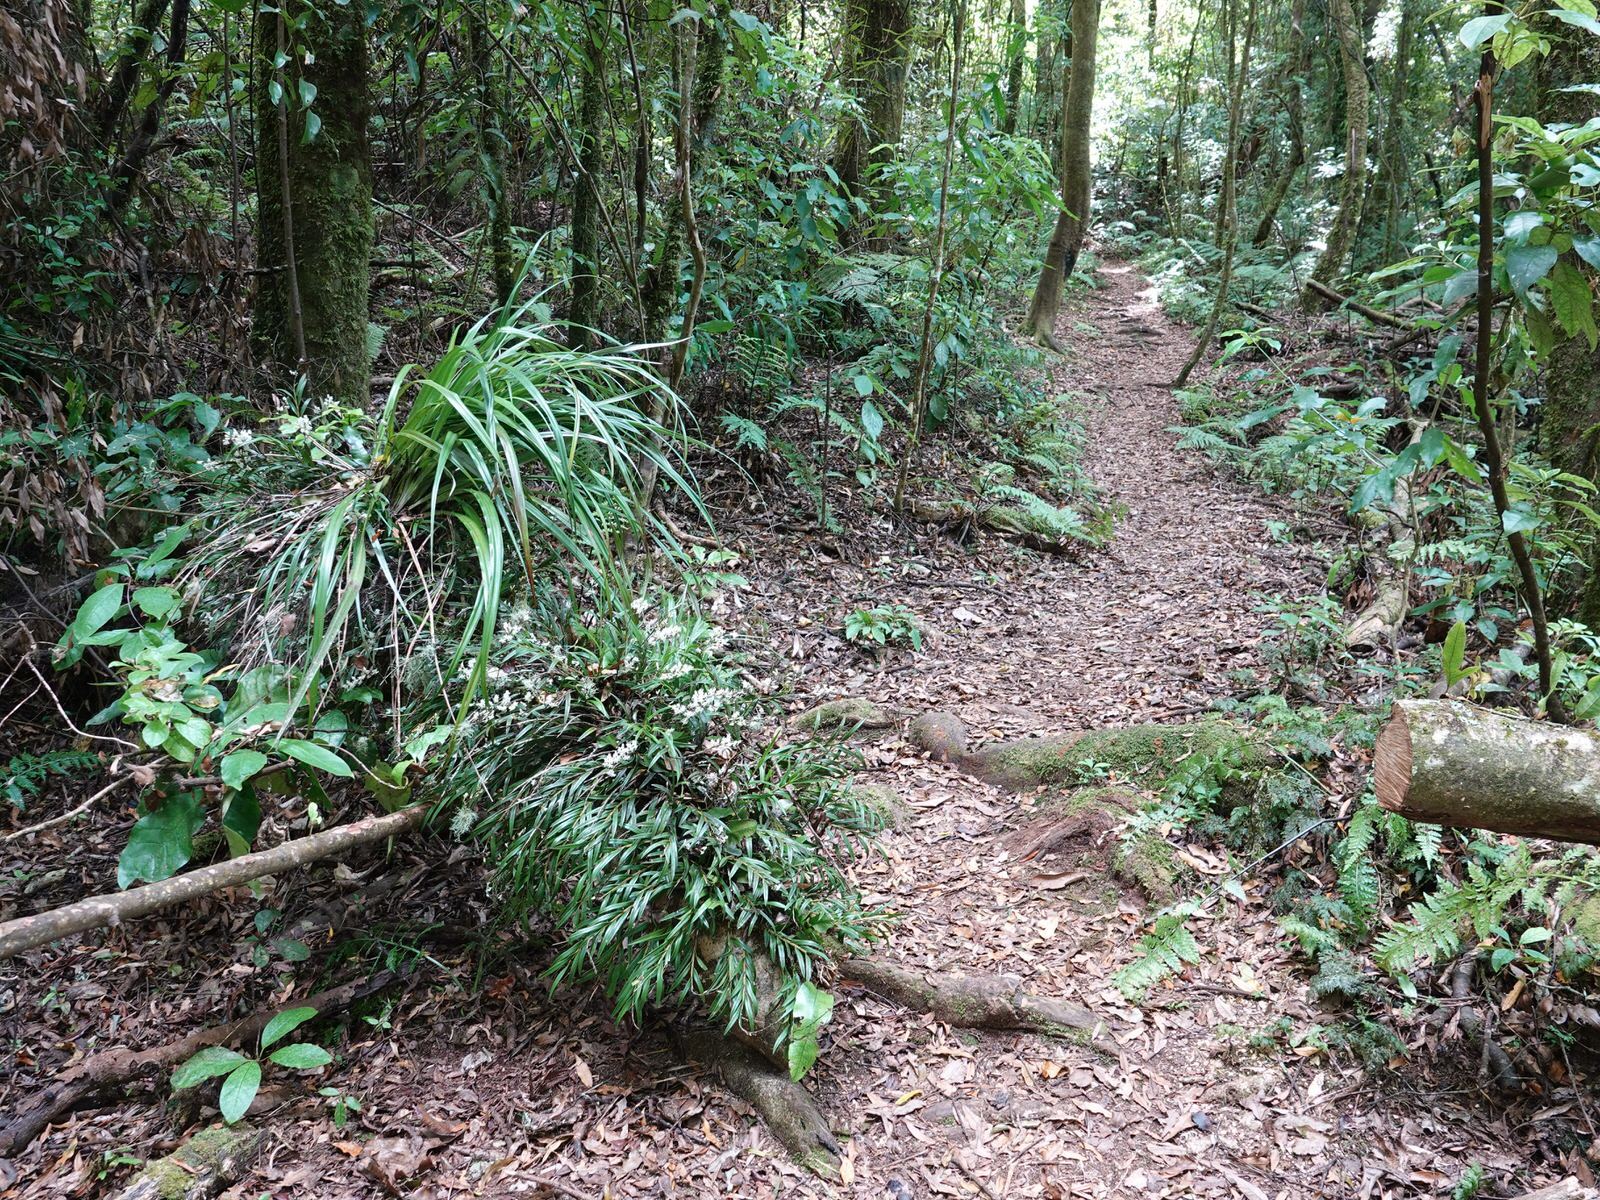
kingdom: Plantae
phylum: Tracheophyta
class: Liliopsida
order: Asparagales
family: Orchidaceae
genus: Earina
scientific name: Earina autumnalis
